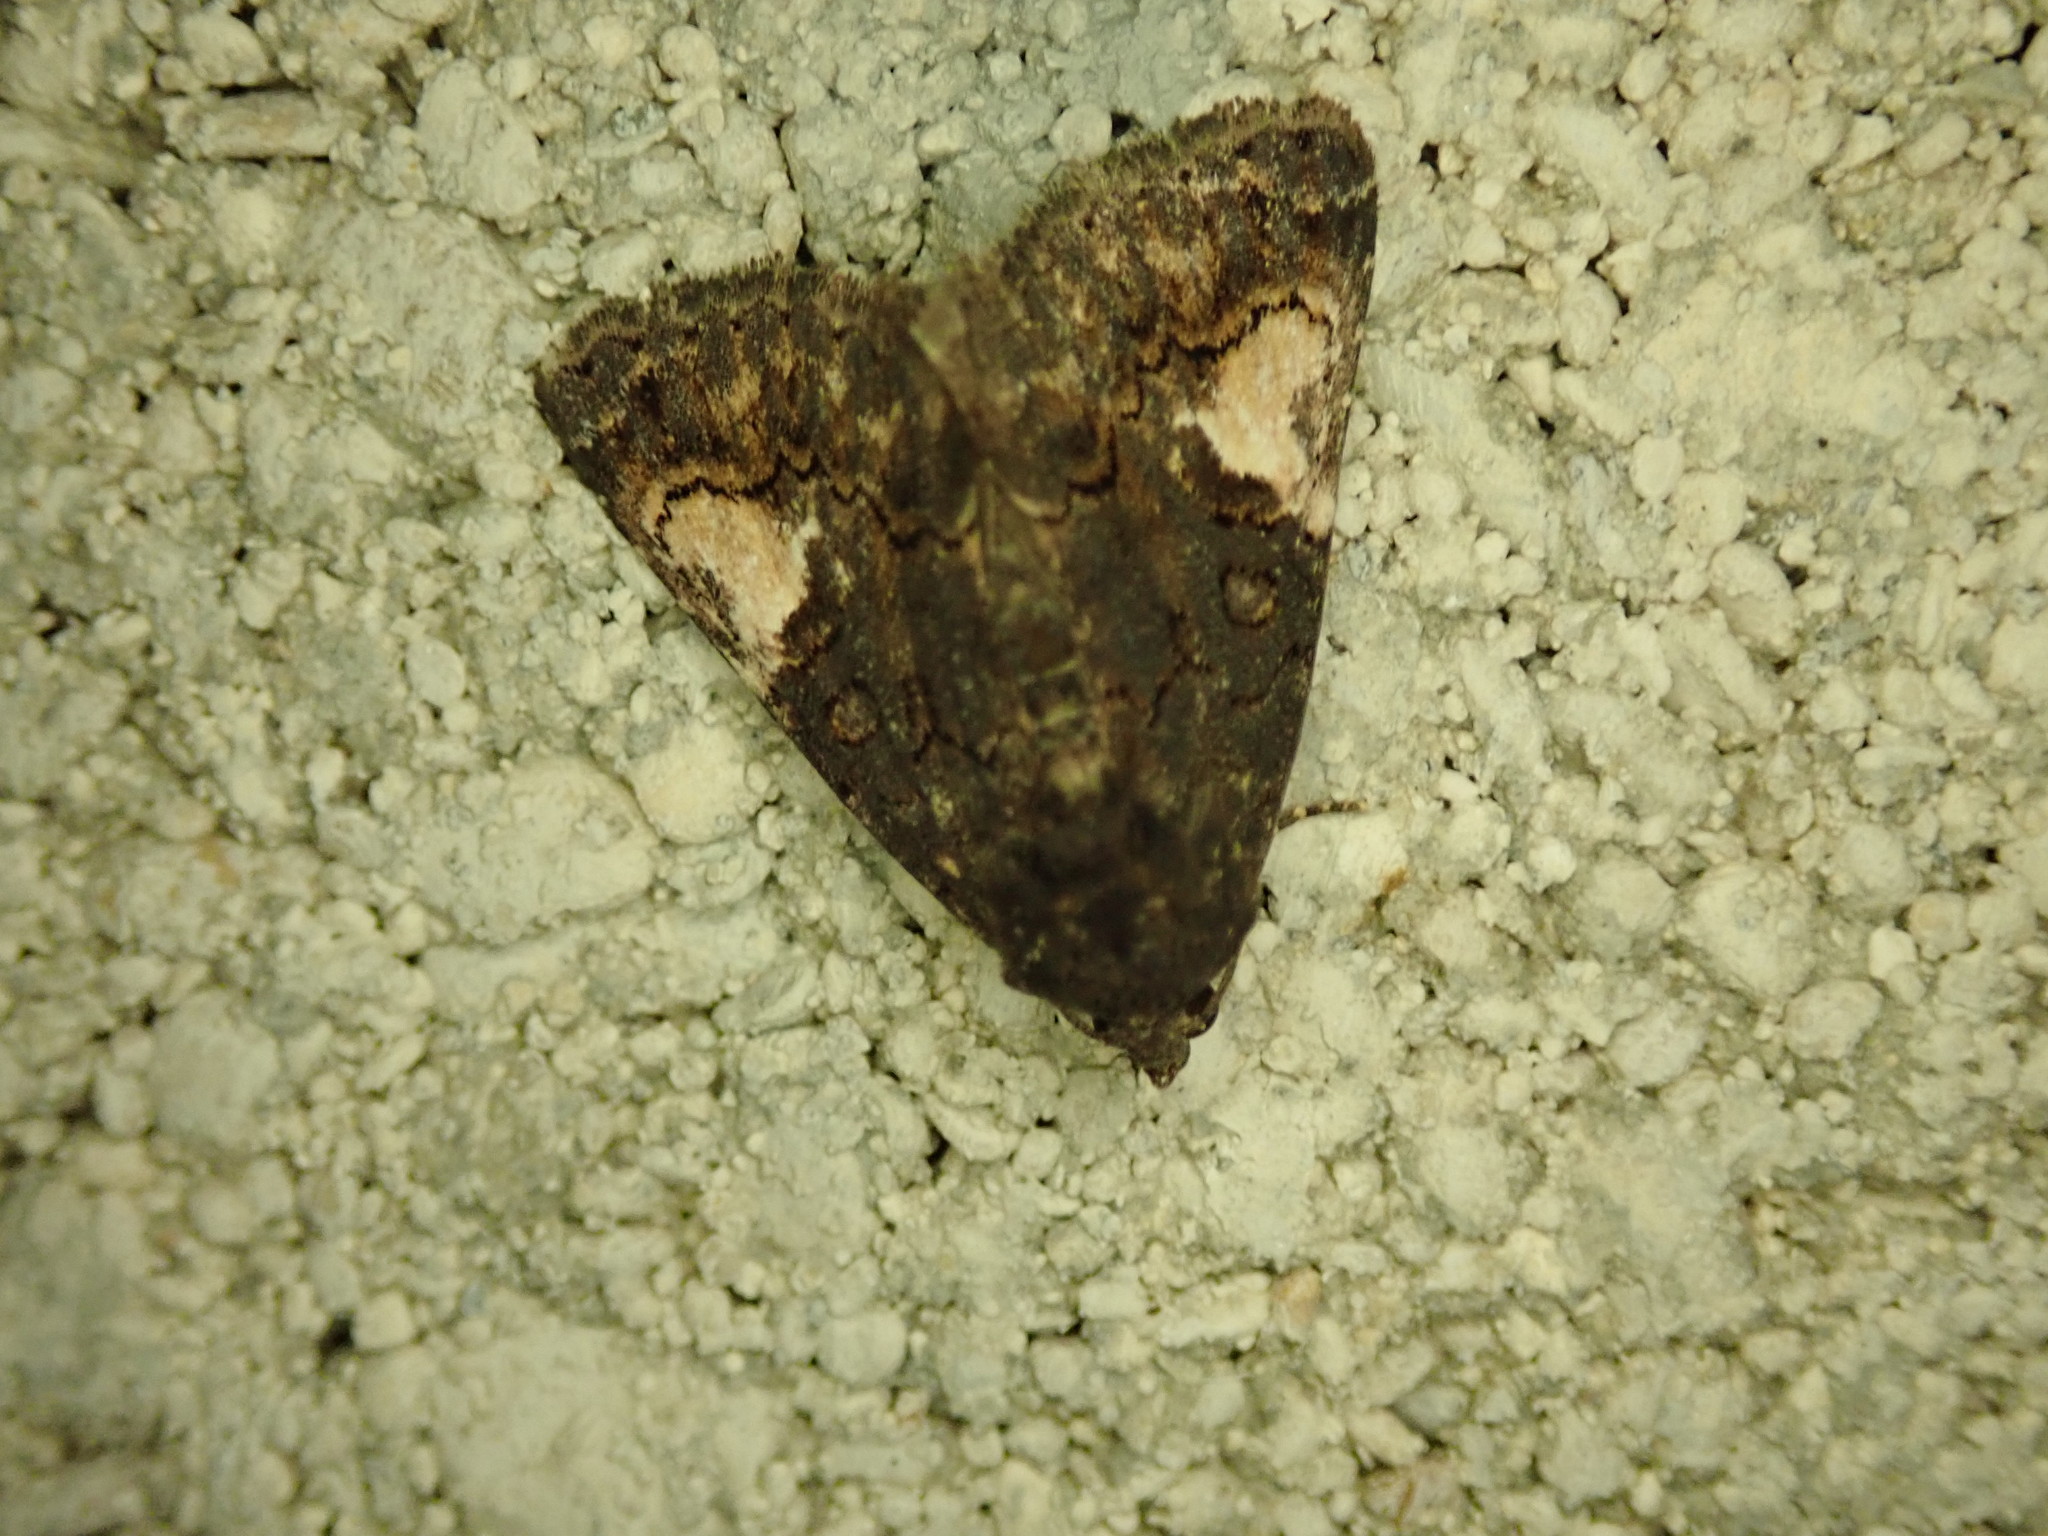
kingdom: Animalia
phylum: Arthropoda
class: Insecta
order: Lepidoptera
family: Noctuidae
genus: Aedia
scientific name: Aedia funesta
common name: The druid
